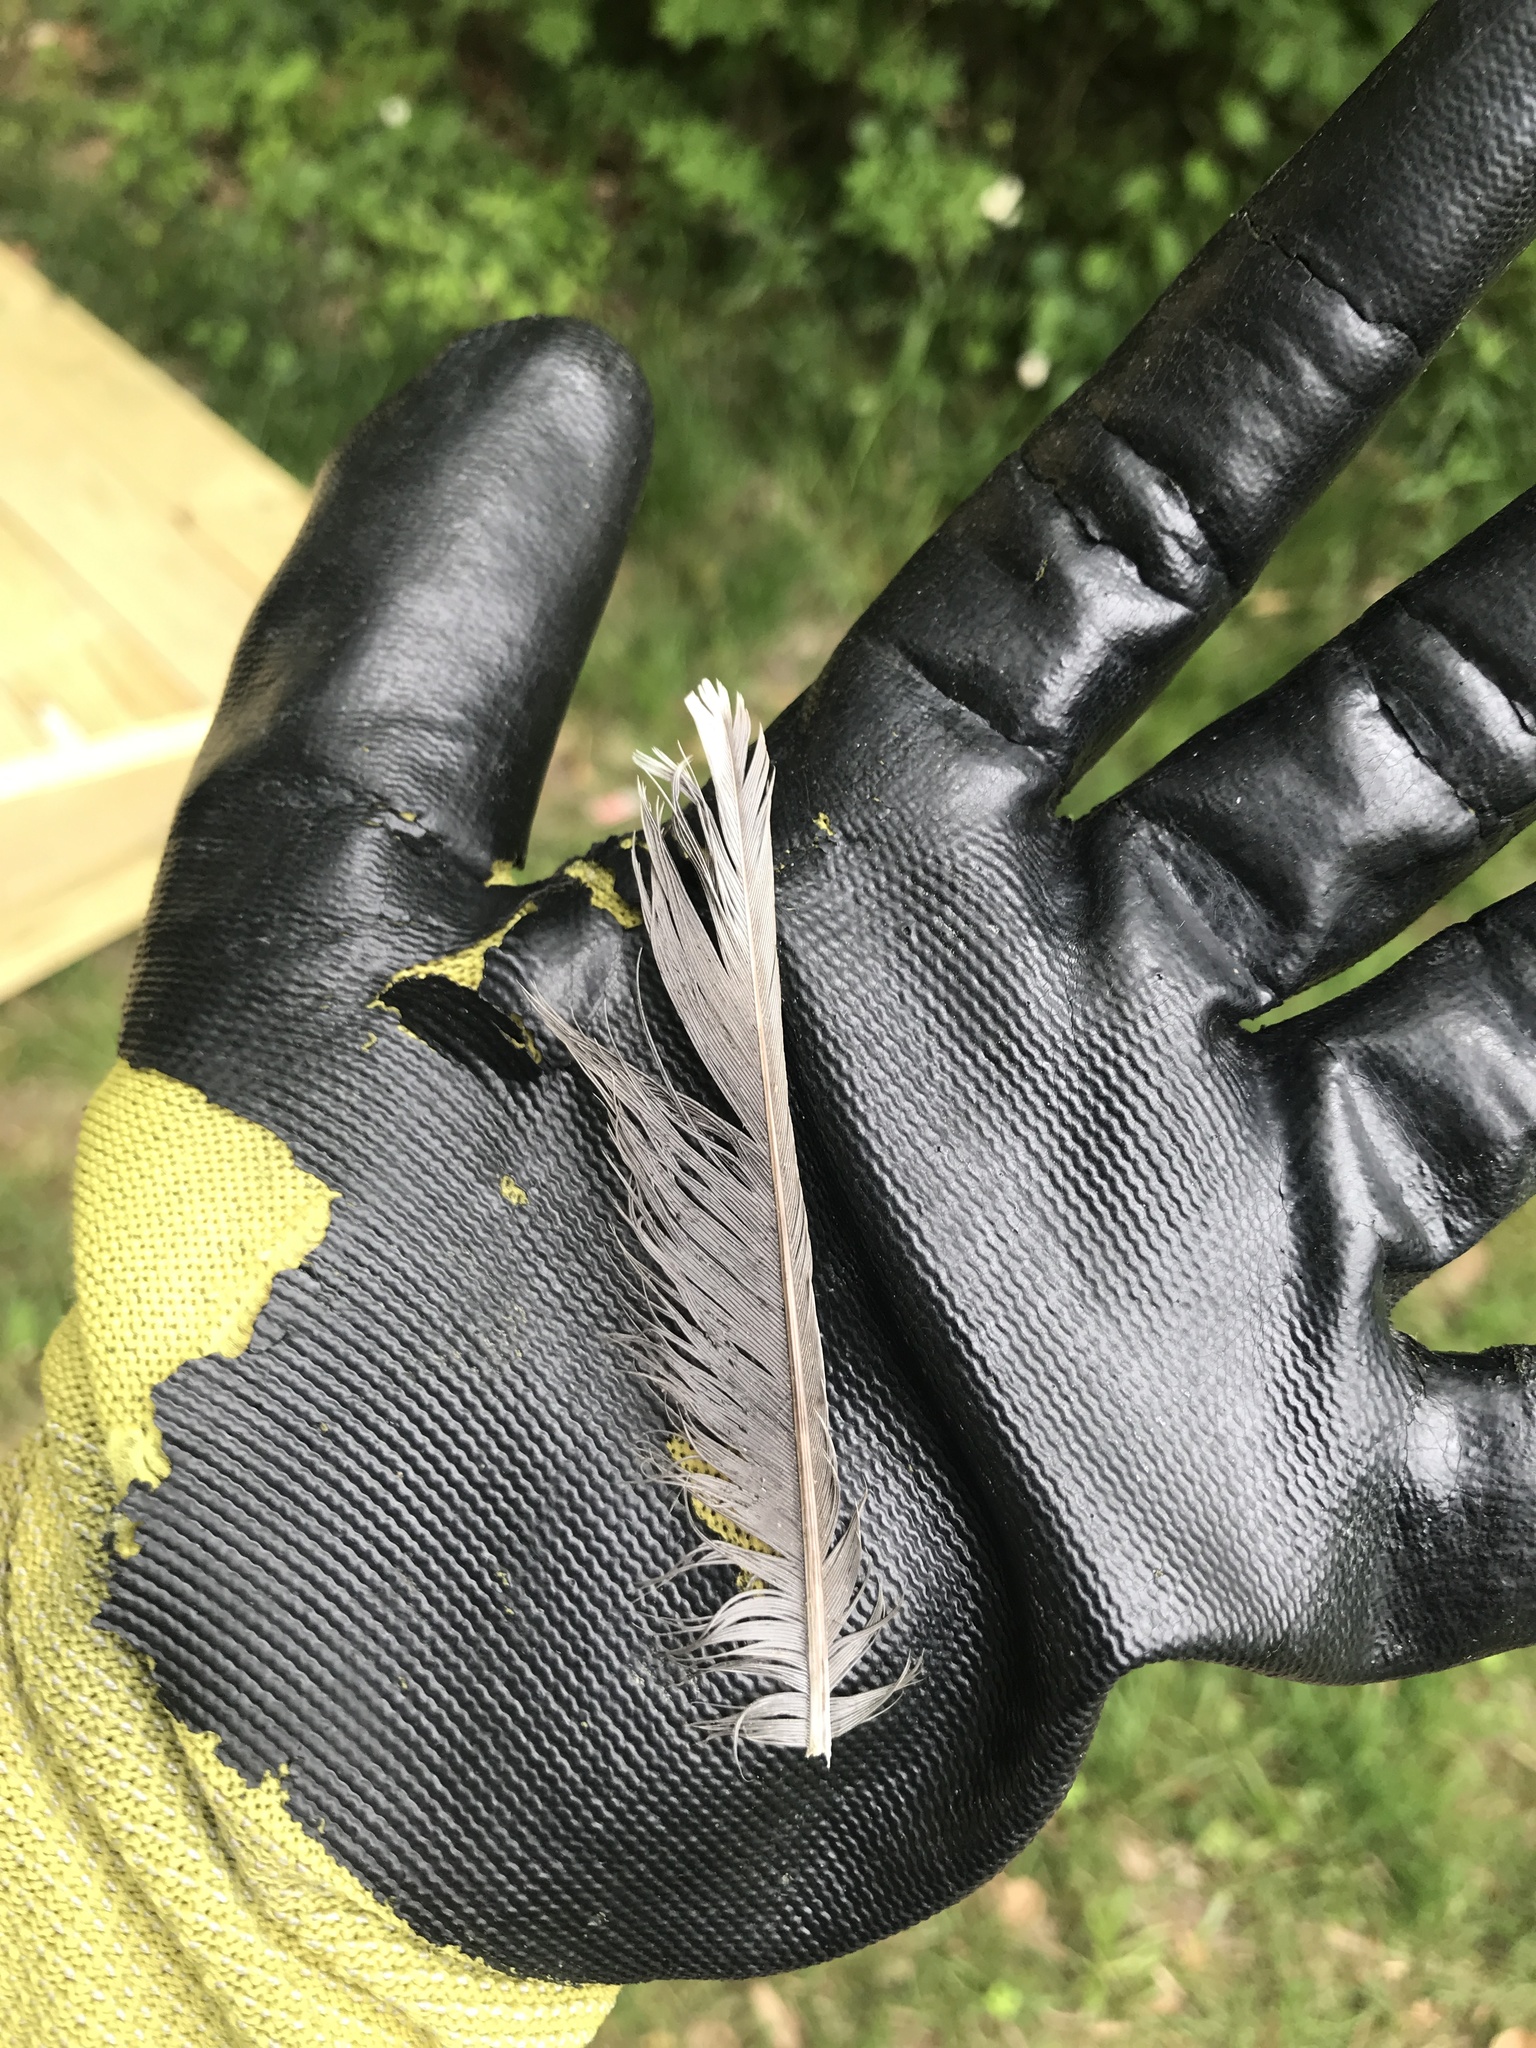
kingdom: Animalia
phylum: Chordata
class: Aves
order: Passeriformes
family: Turdidae
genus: Turdus
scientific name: Turdus migratorius
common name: American robin
